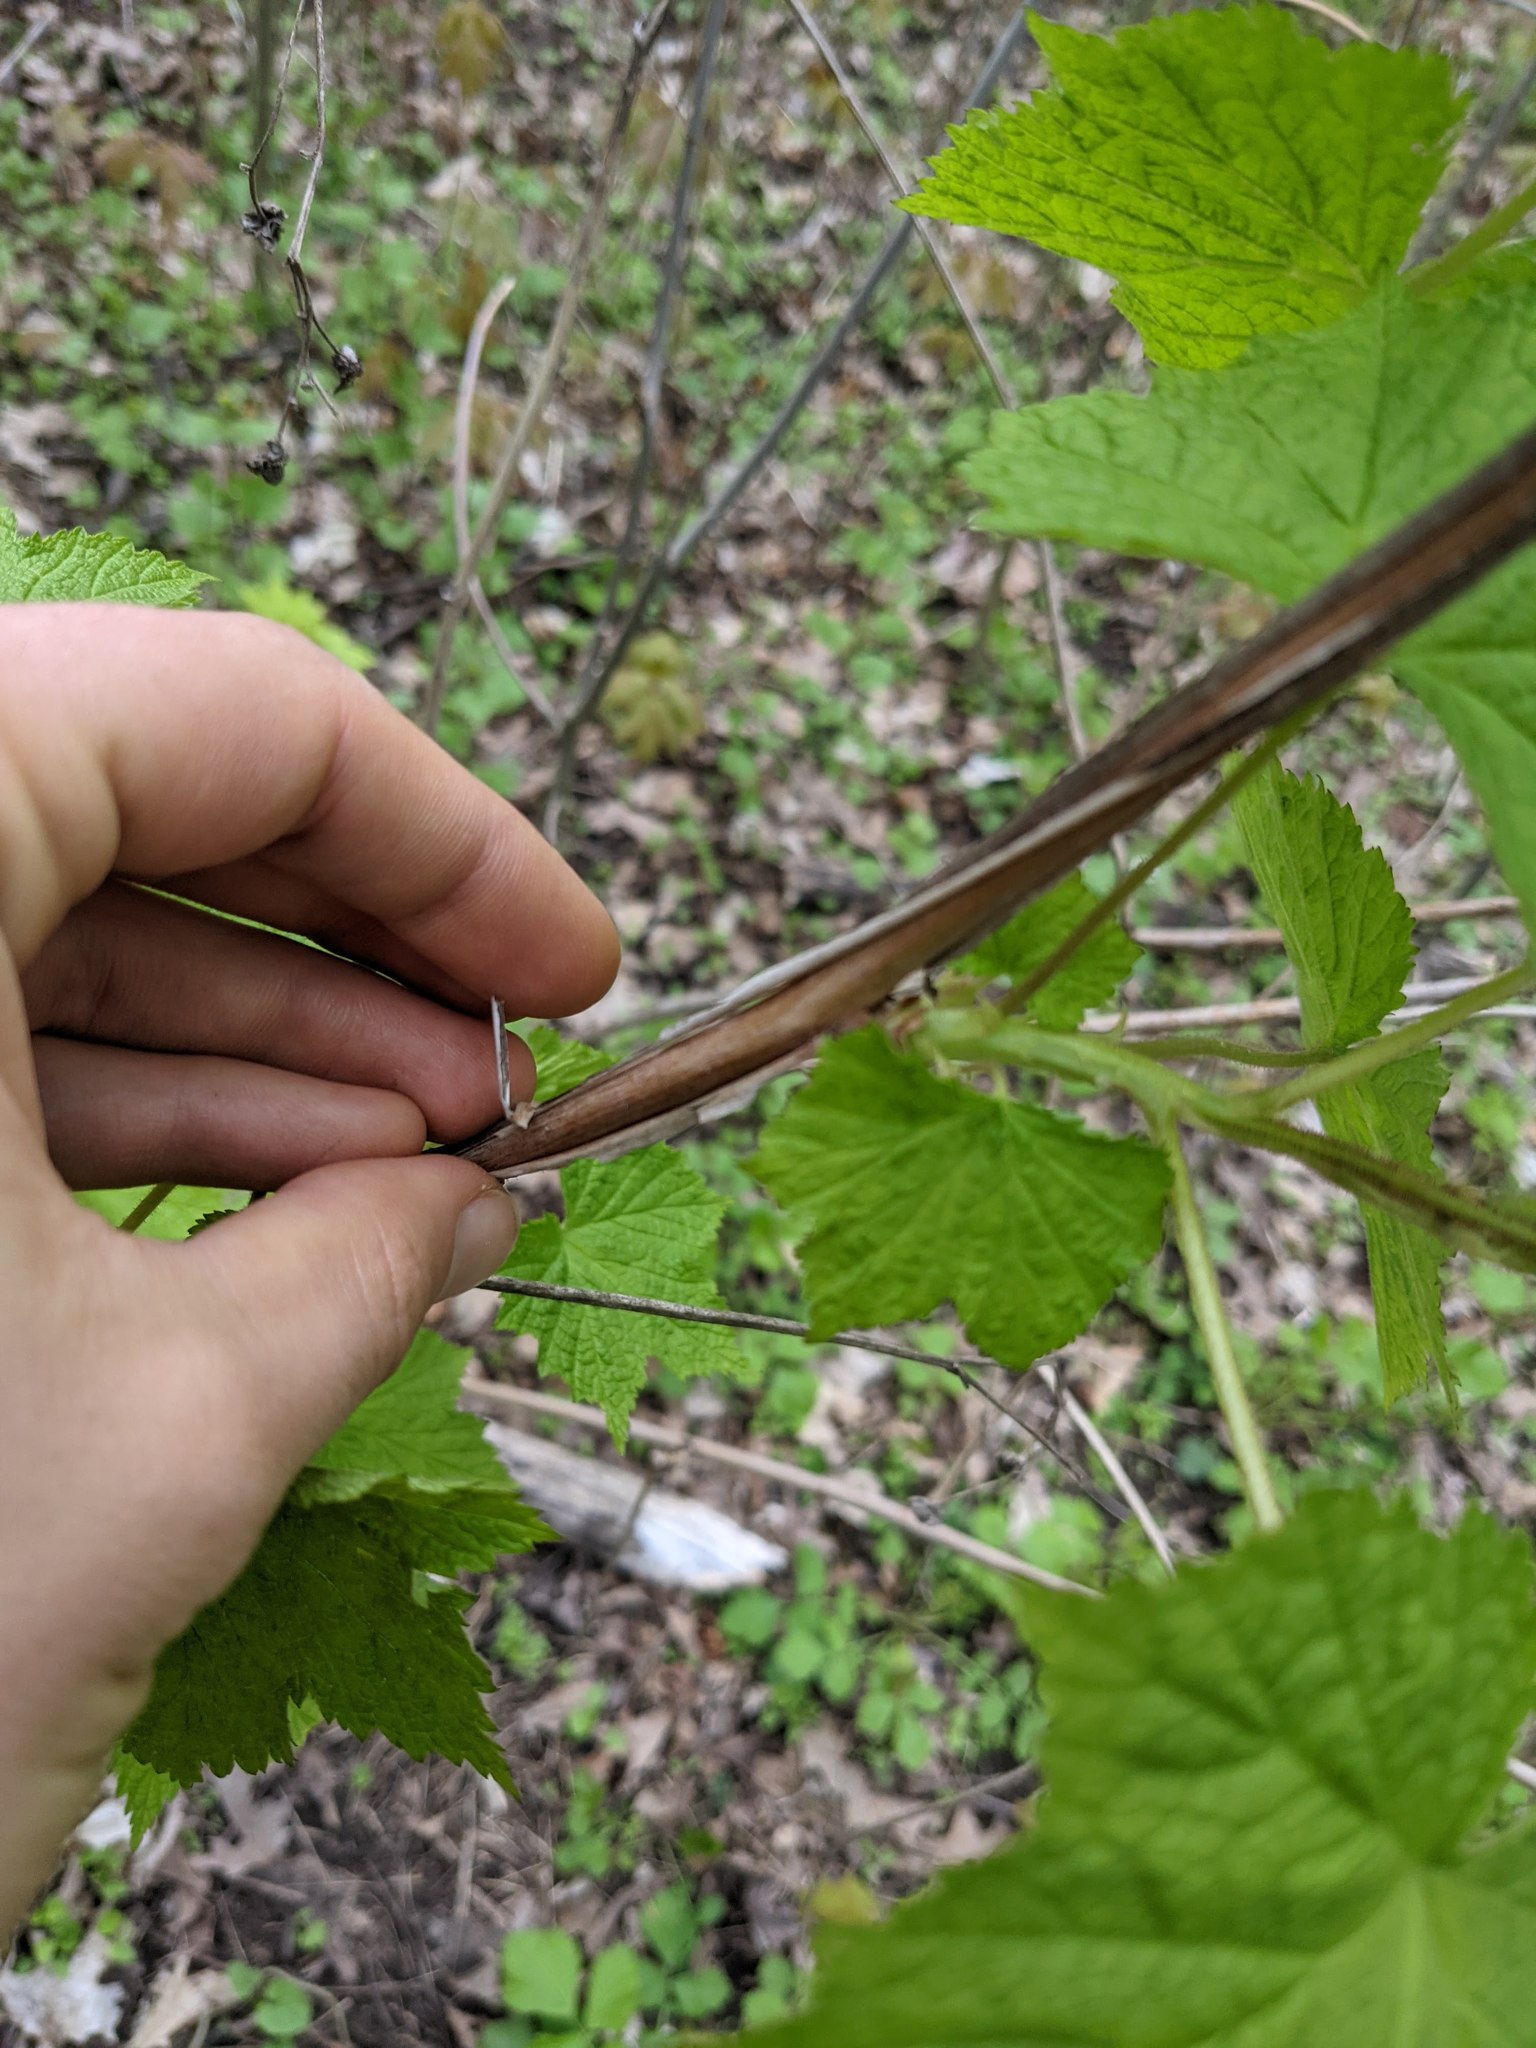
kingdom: Plantae
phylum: Tracheophyta
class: Magnoliopsida
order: Rosales
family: Rosaceae
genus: Rubus
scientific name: Rubus odoratus
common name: Purple-flowered raspberry
